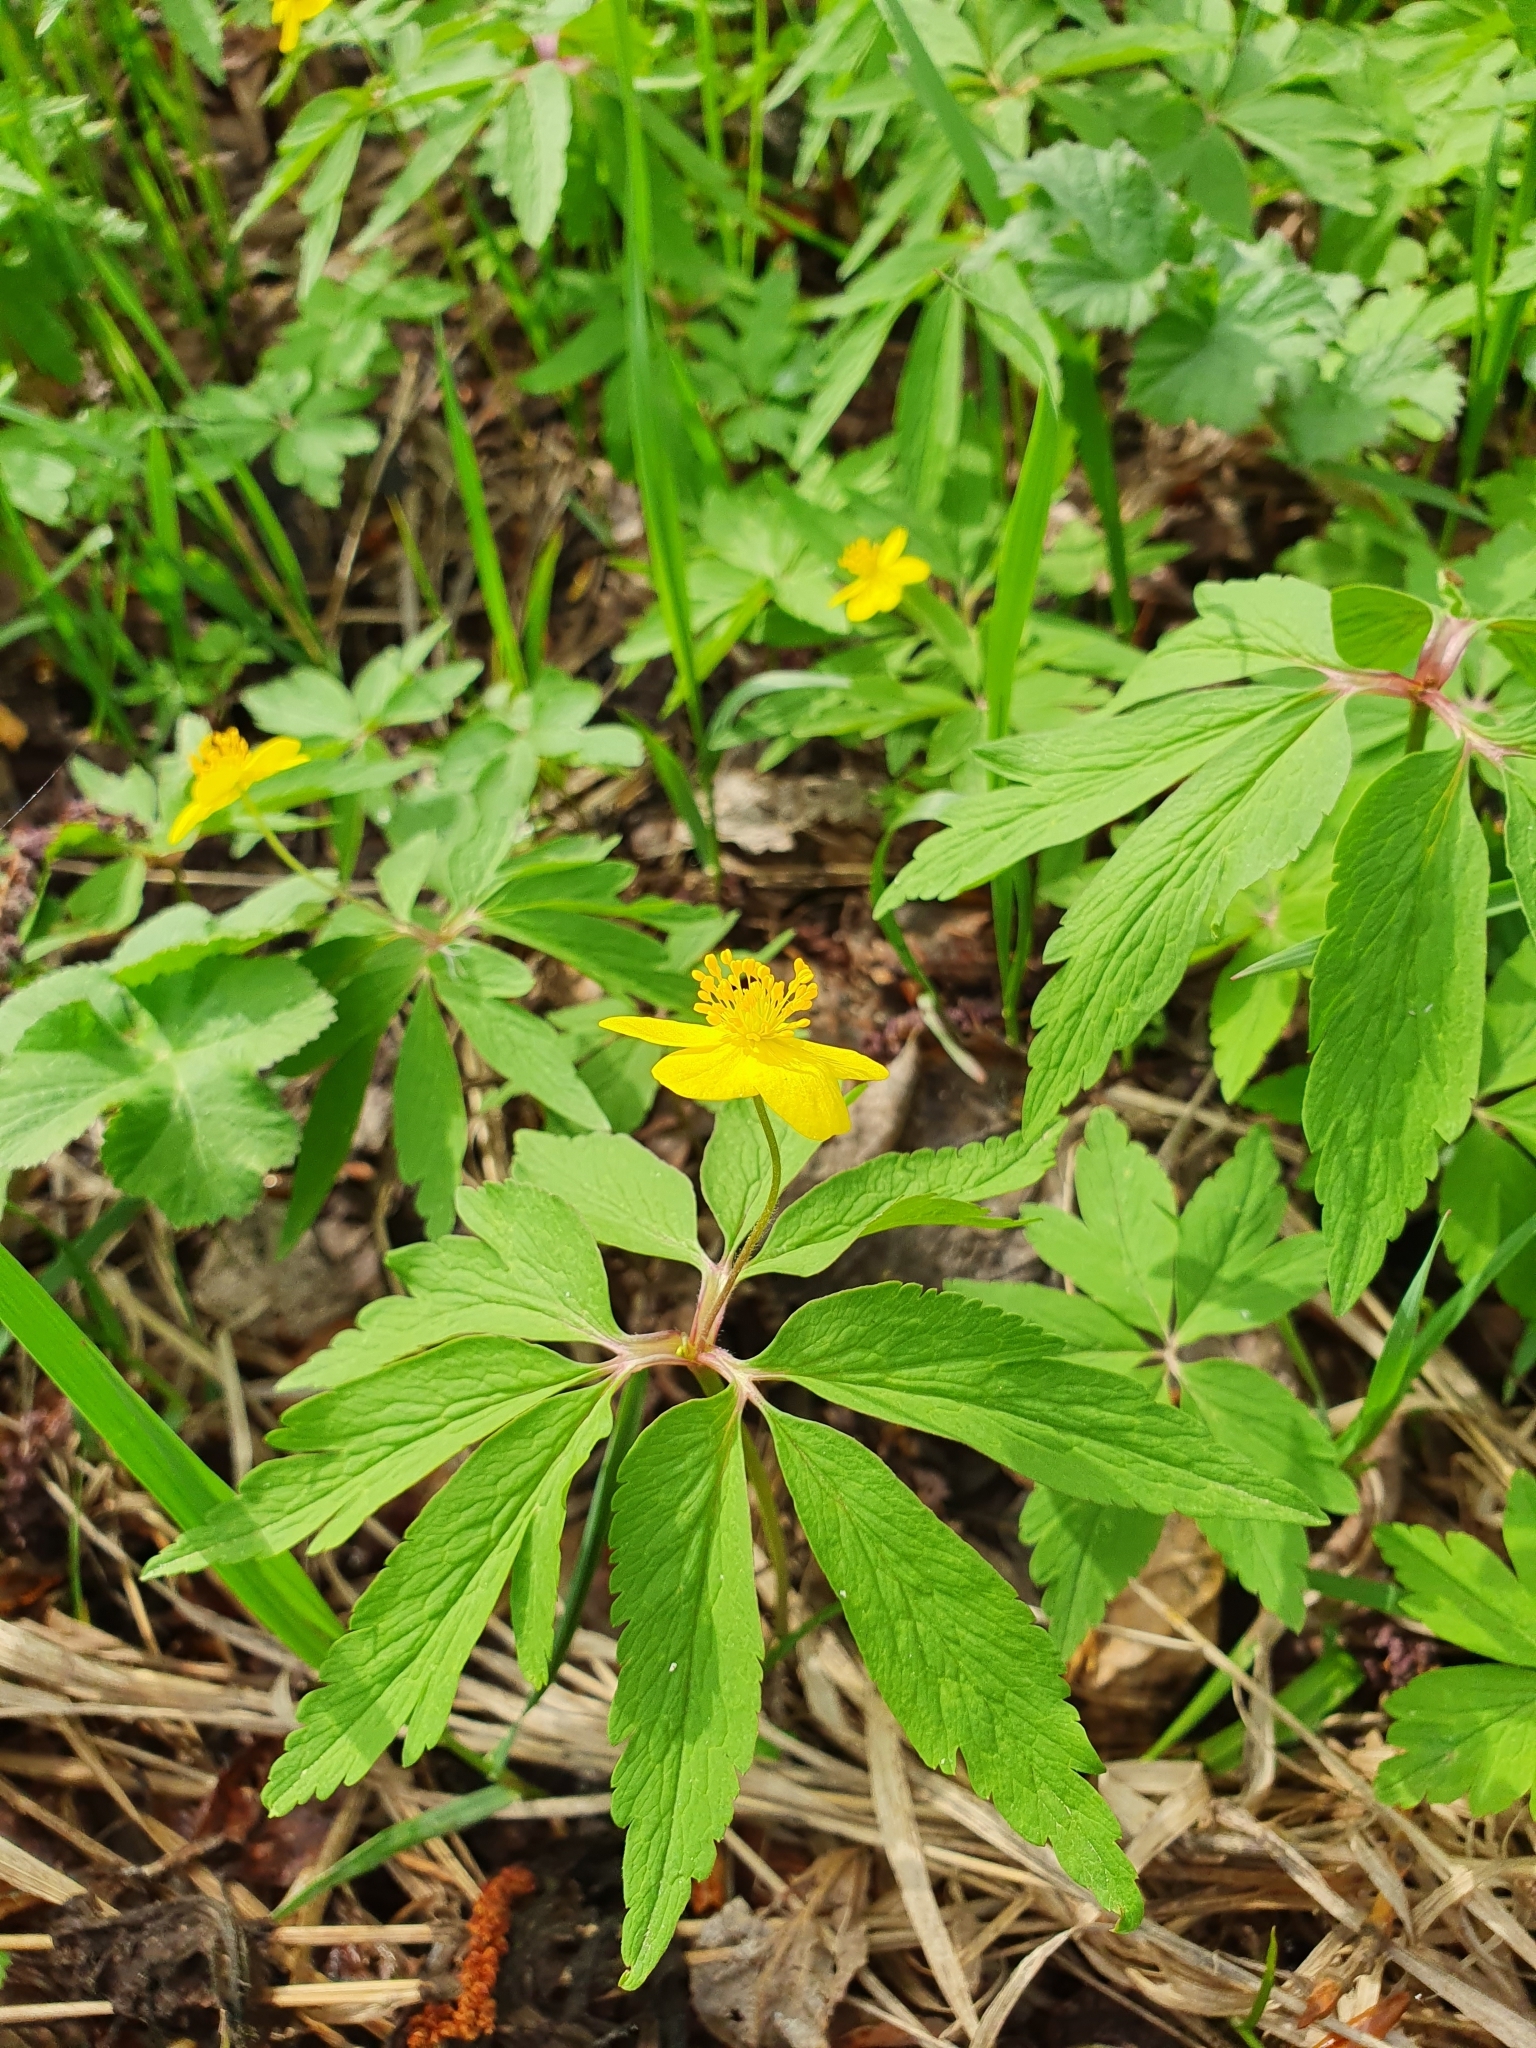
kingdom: Plantae
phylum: Tracheophyta
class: Magnoliopsida
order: Ranunculales
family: Ranunculaceae
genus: Anemone
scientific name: Anemone ranunculoides
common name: Yellow anemone
